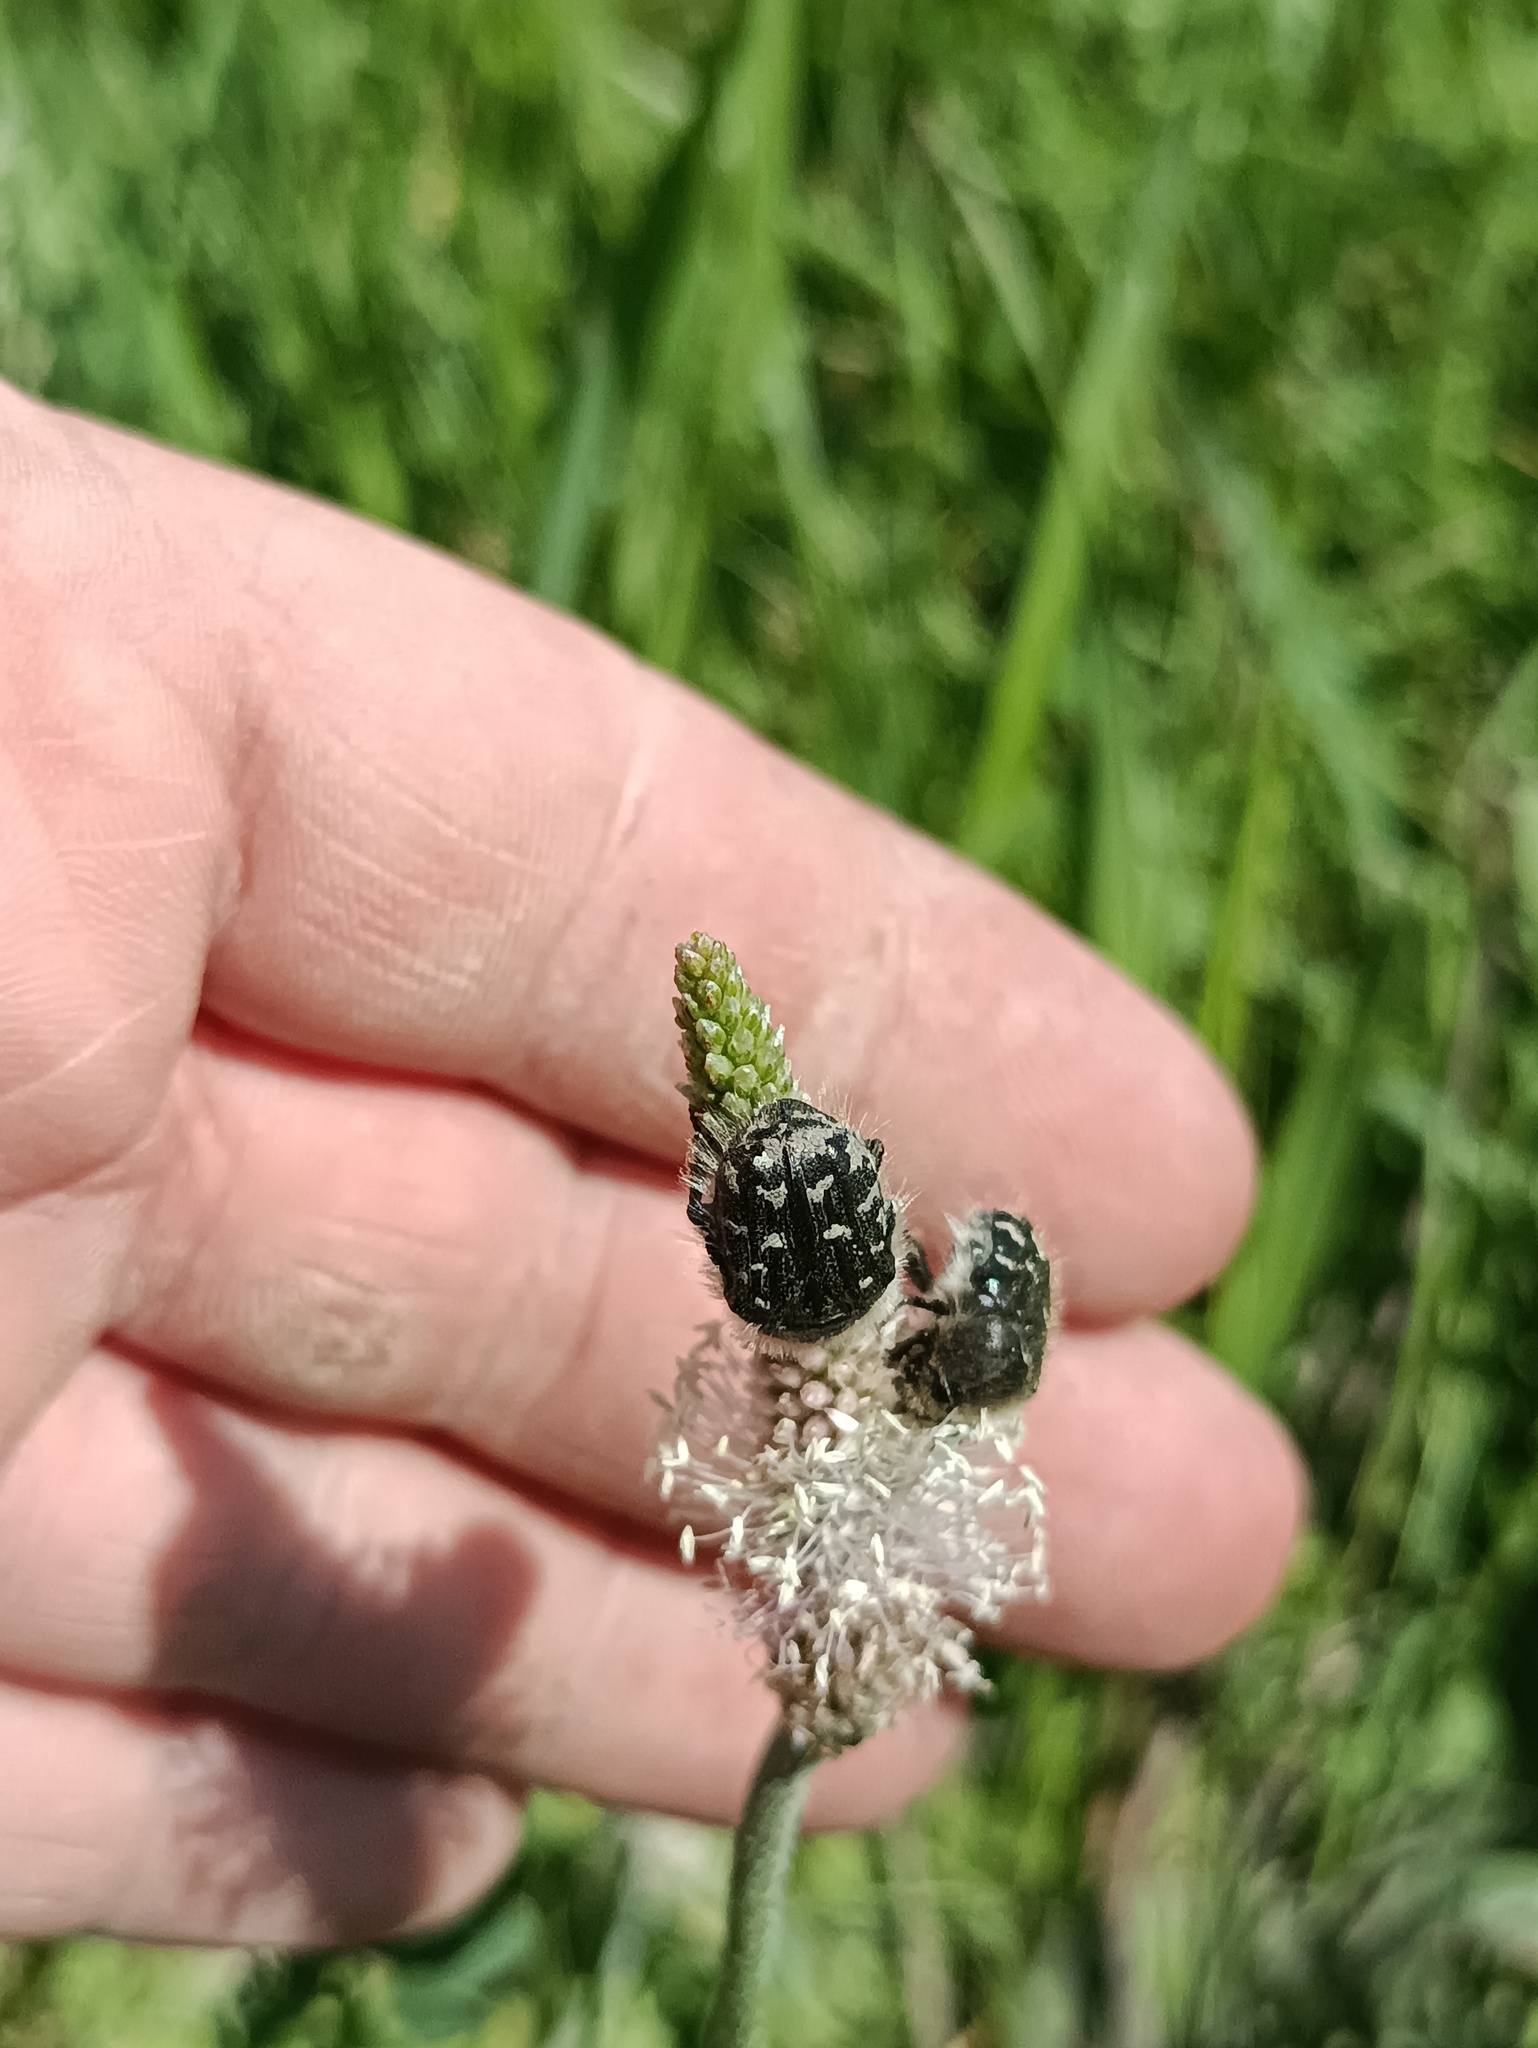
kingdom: Animalia
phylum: Arthropoda
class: Insecta
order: Coleoptera
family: Scarabaeidae
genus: Tropinota
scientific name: Tropinota hirta
